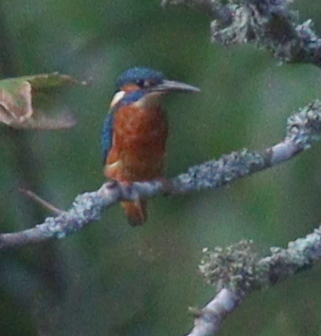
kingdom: Animalia
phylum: Chordata
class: Aves
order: Coraciiformes
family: Alcedinidae
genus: Alcedo
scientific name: Alcedo atthis
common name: Common kingfisher
